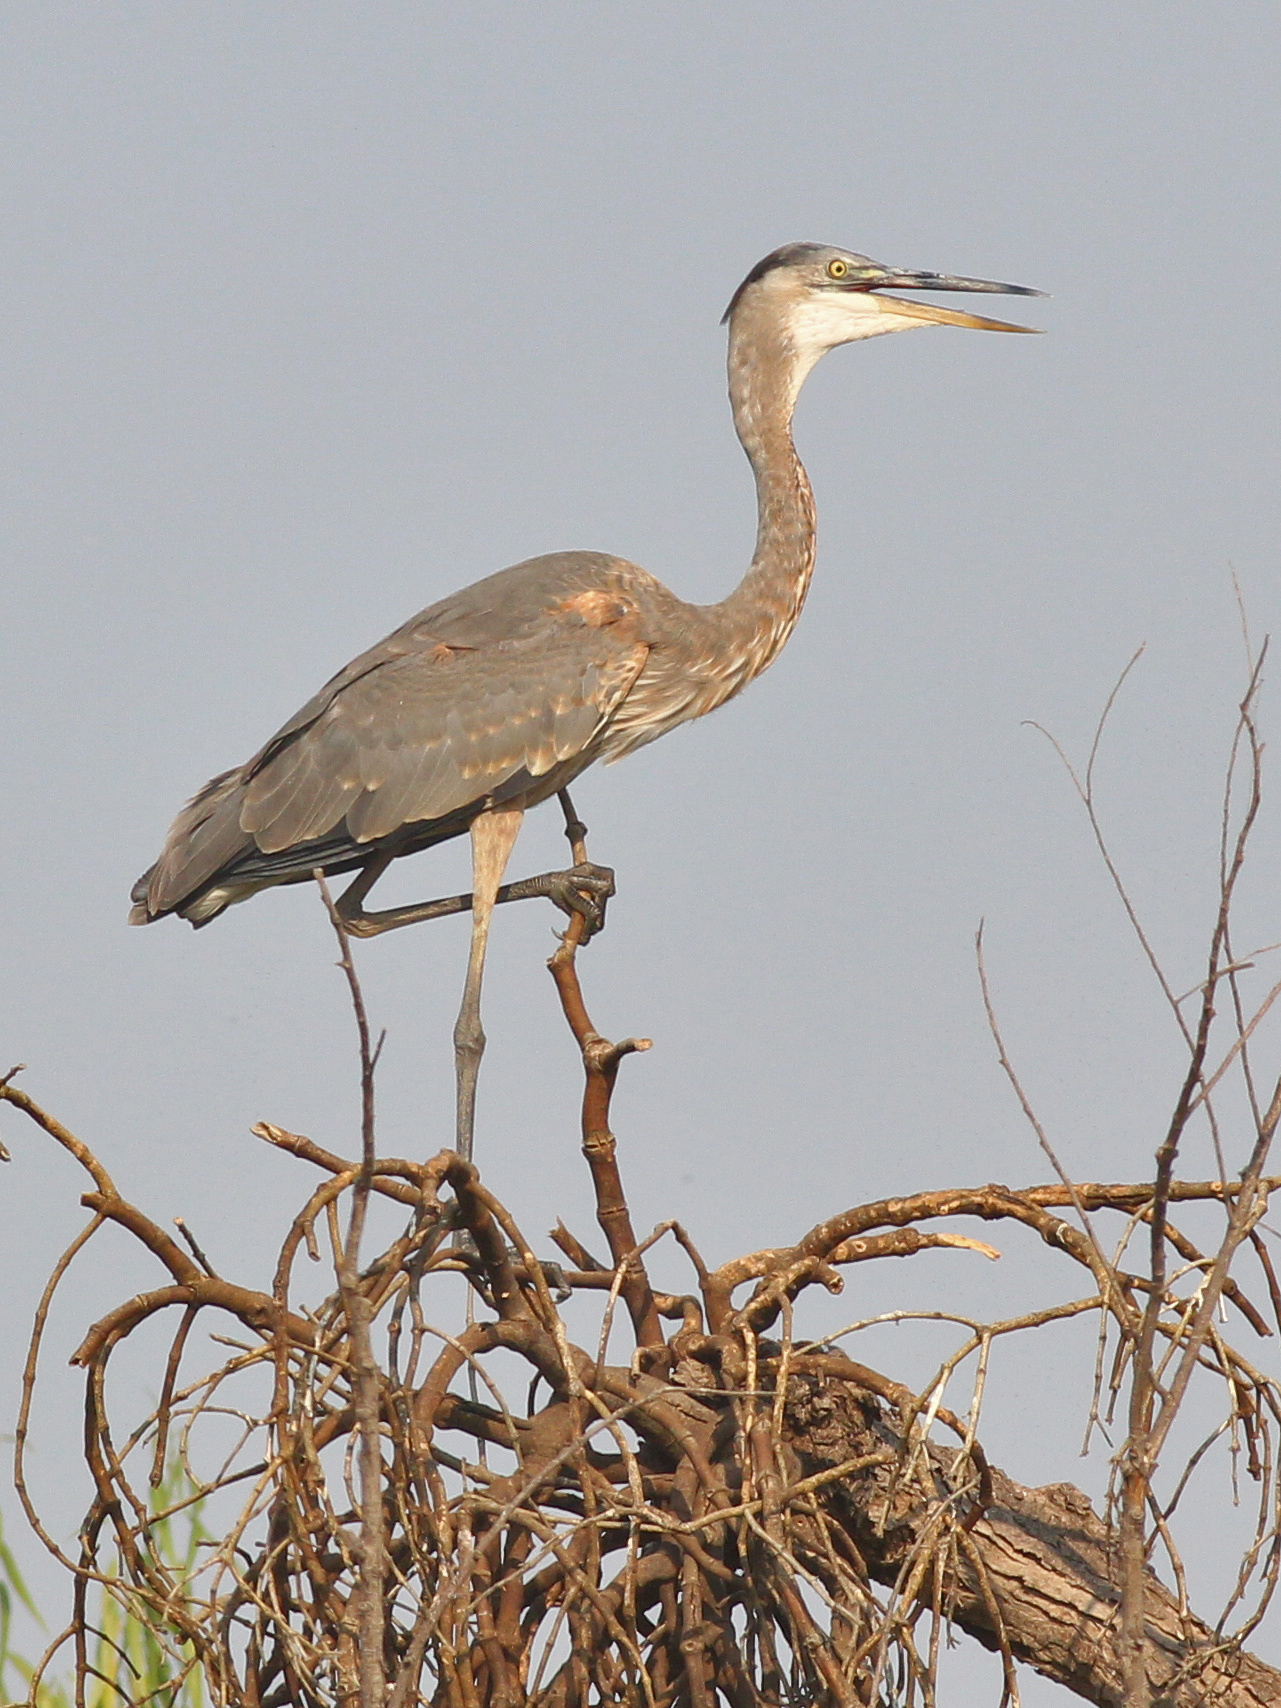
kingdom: Animalia
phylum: Chordata
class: Aves
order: Pelecaniformes
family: Ardeidae
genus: Ardea
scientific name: Ardea herodias
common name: Great blue heron
